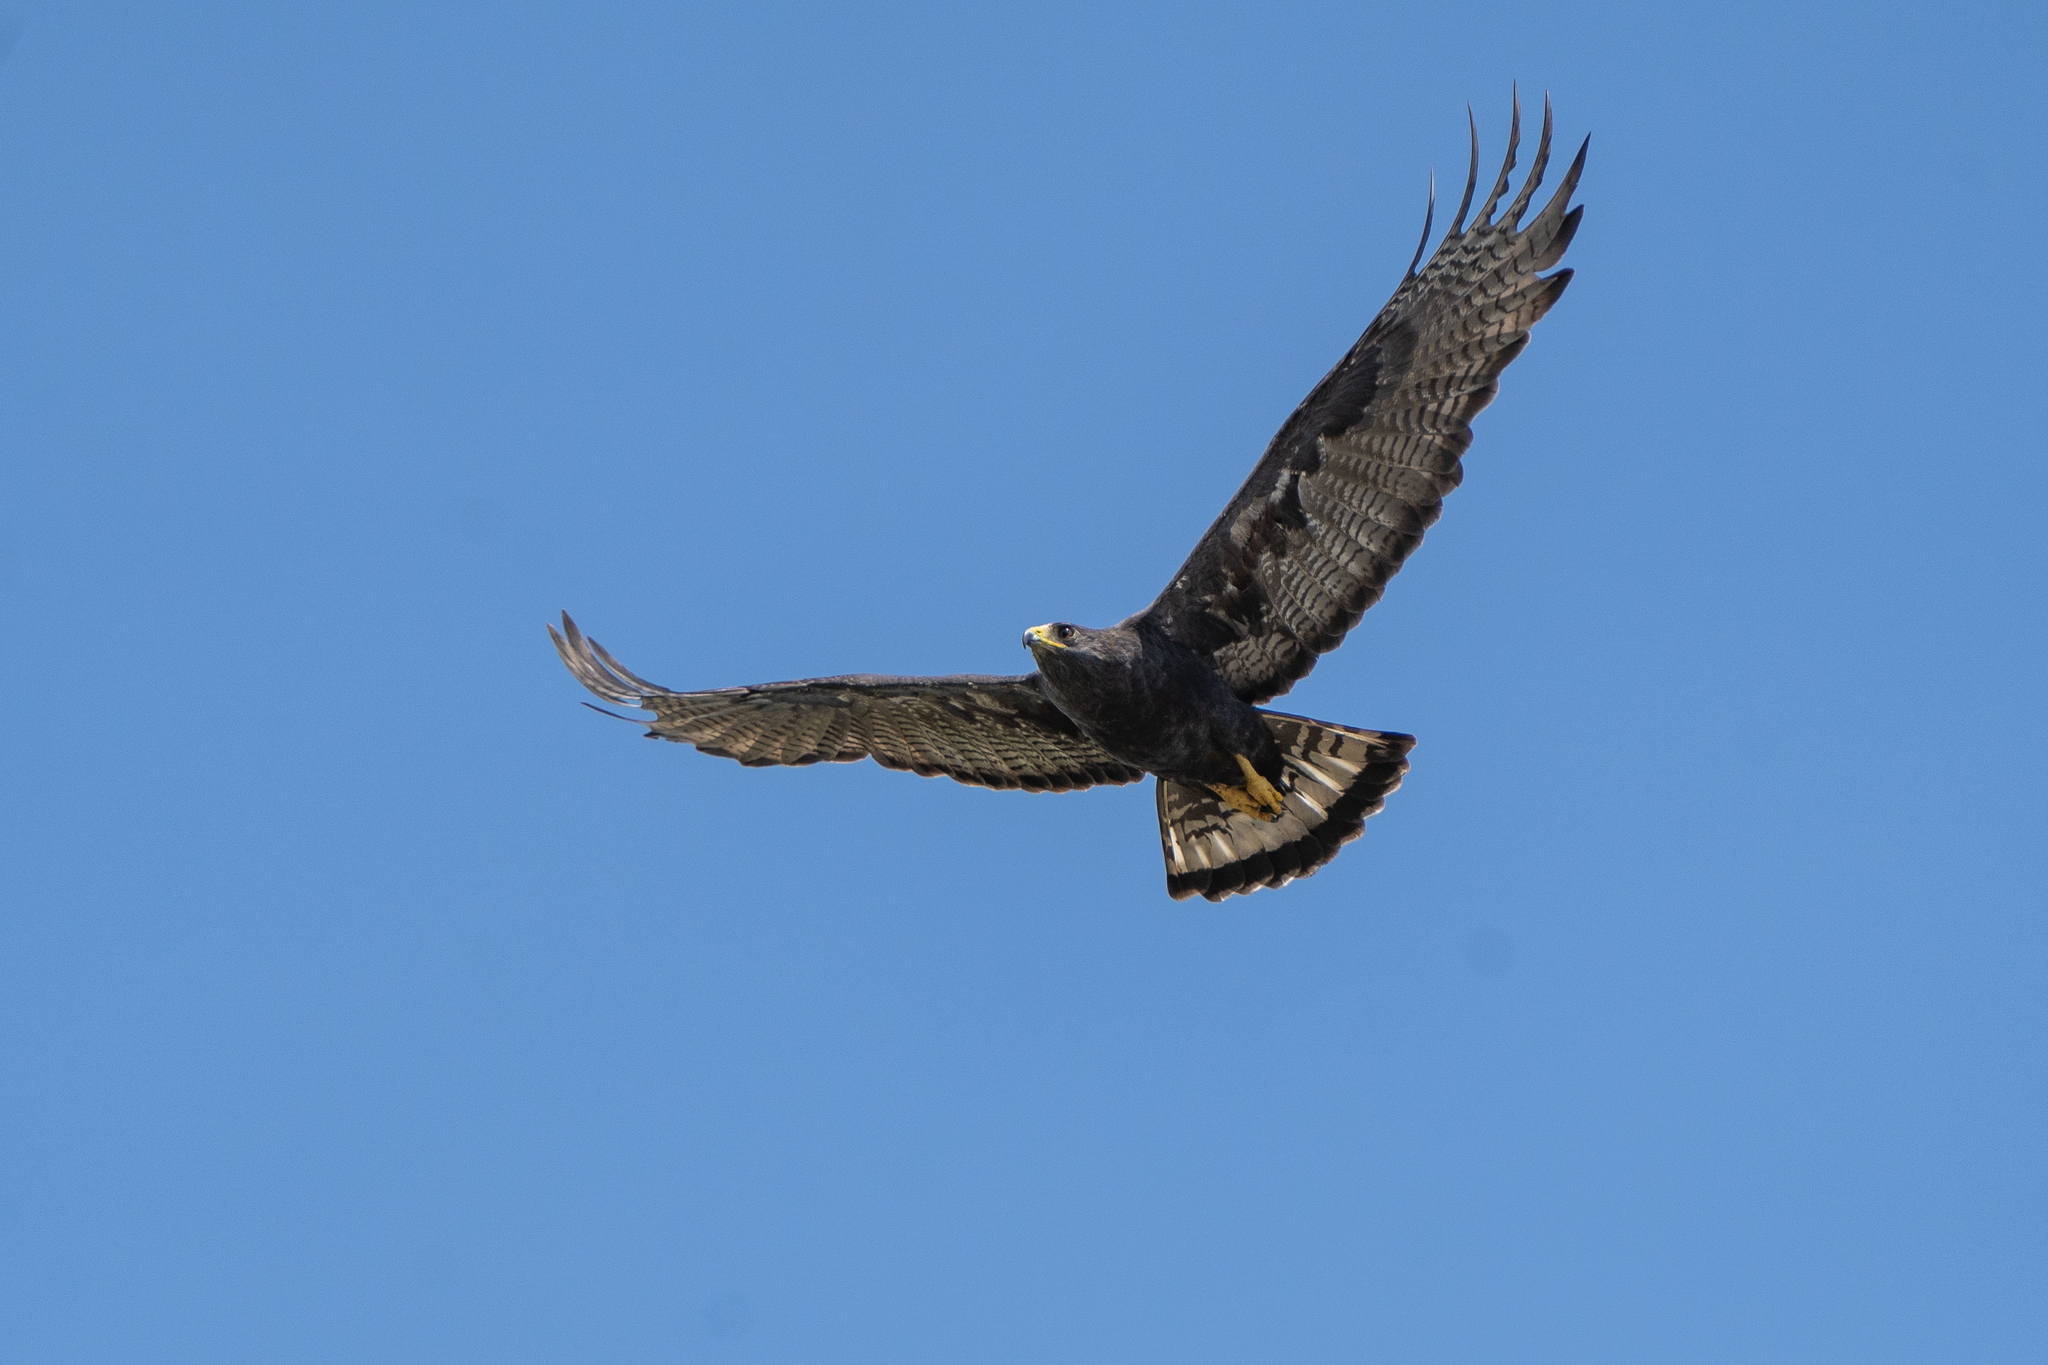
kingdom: Animalia
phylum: Chordata
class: Aves
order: Accipitriformes
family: Accipitridae
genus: Buteo
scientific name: Buteo albonotatus
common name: Zone-tailed hawk
